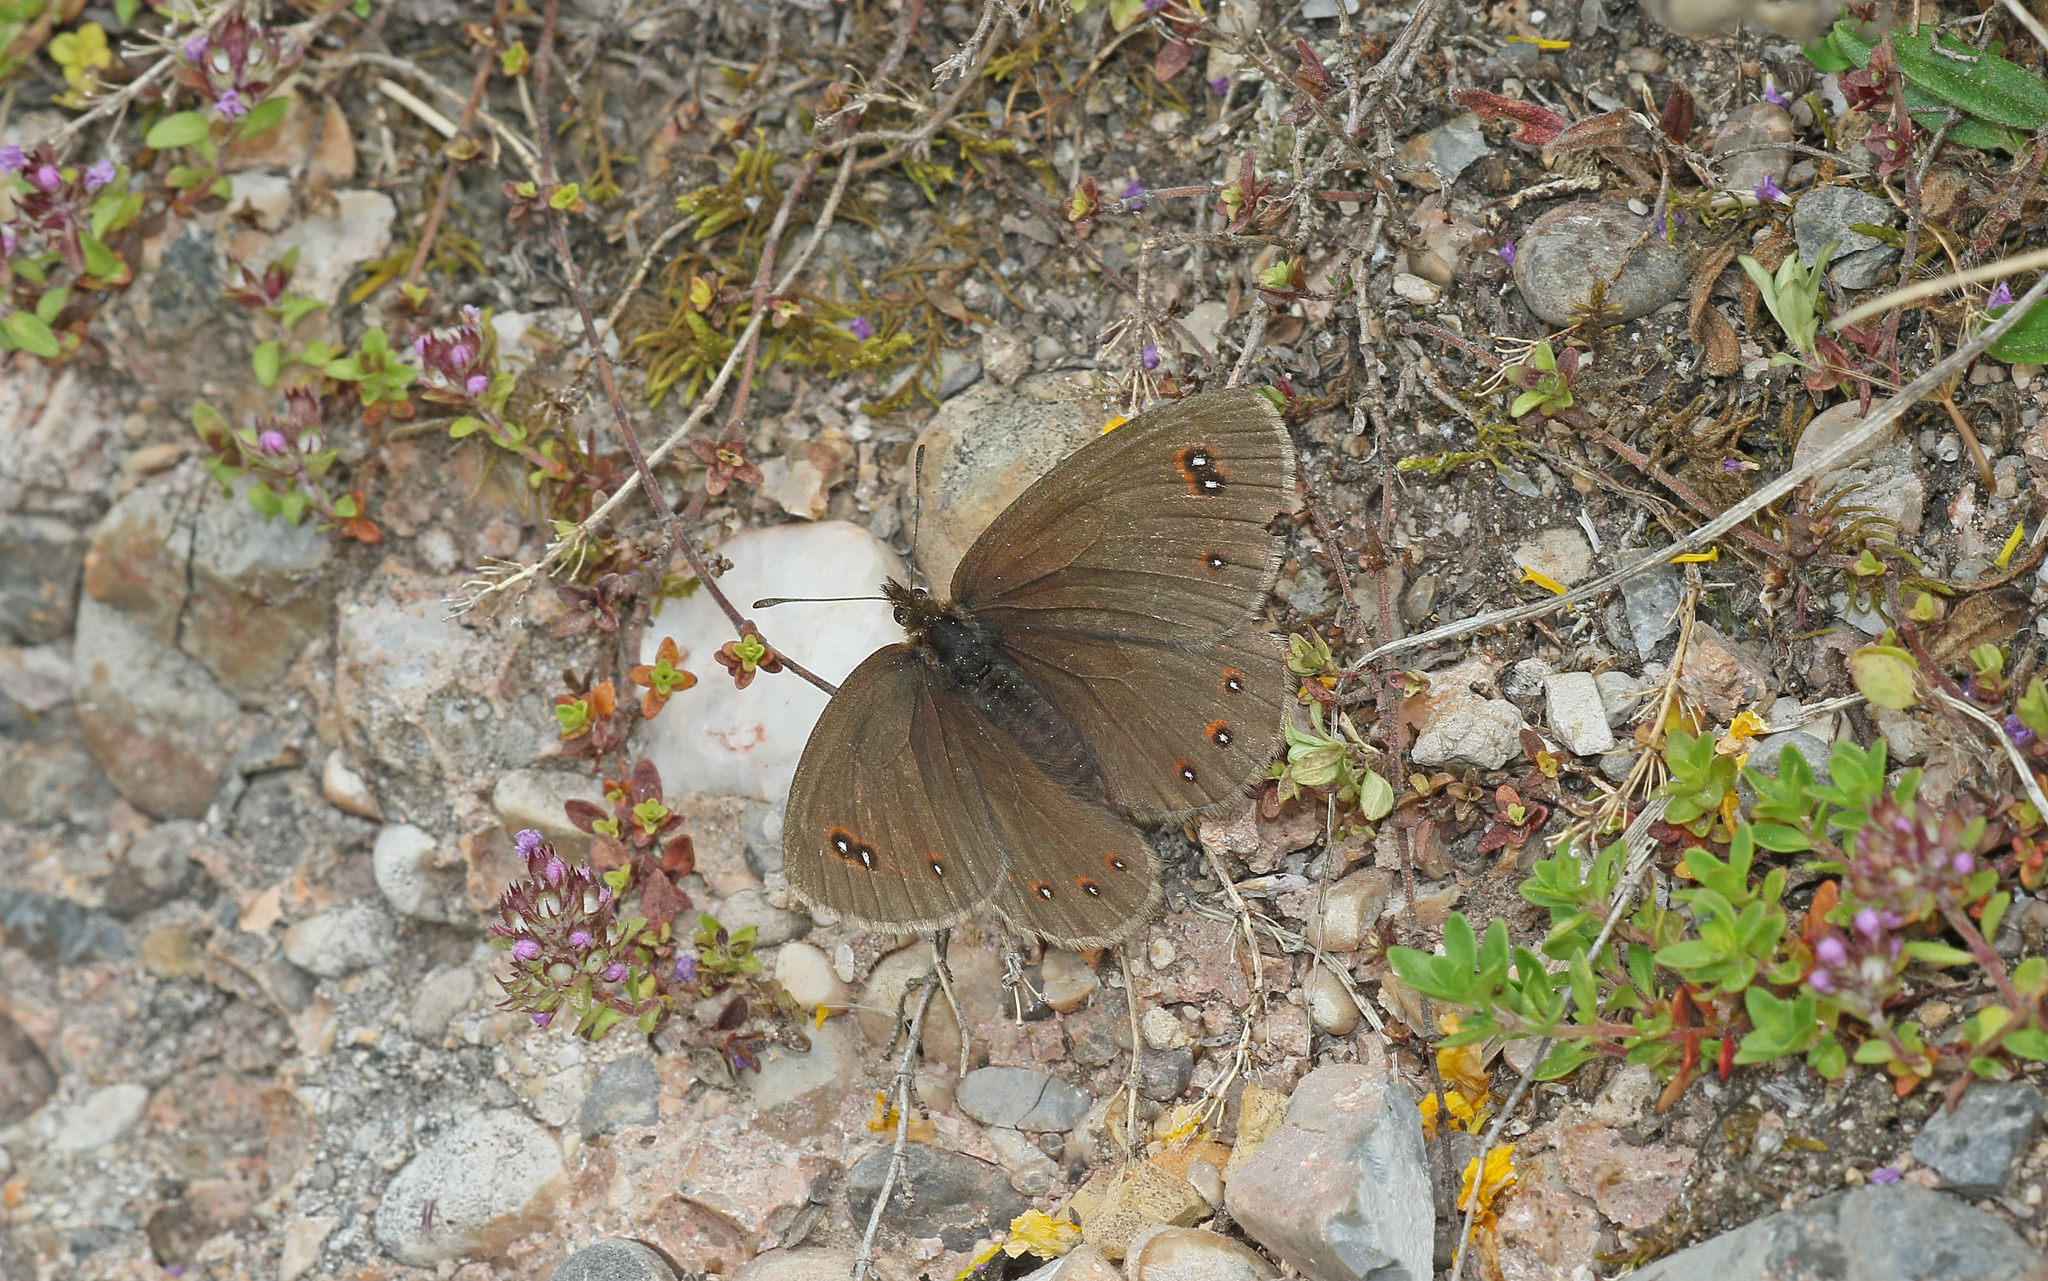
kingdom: Animalia
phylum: Arthropoda
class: Insecta
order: Lepidoptera
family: Nymphalidae
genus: Erebia
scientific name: Erebia meolans
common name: Piedmont ringlet
